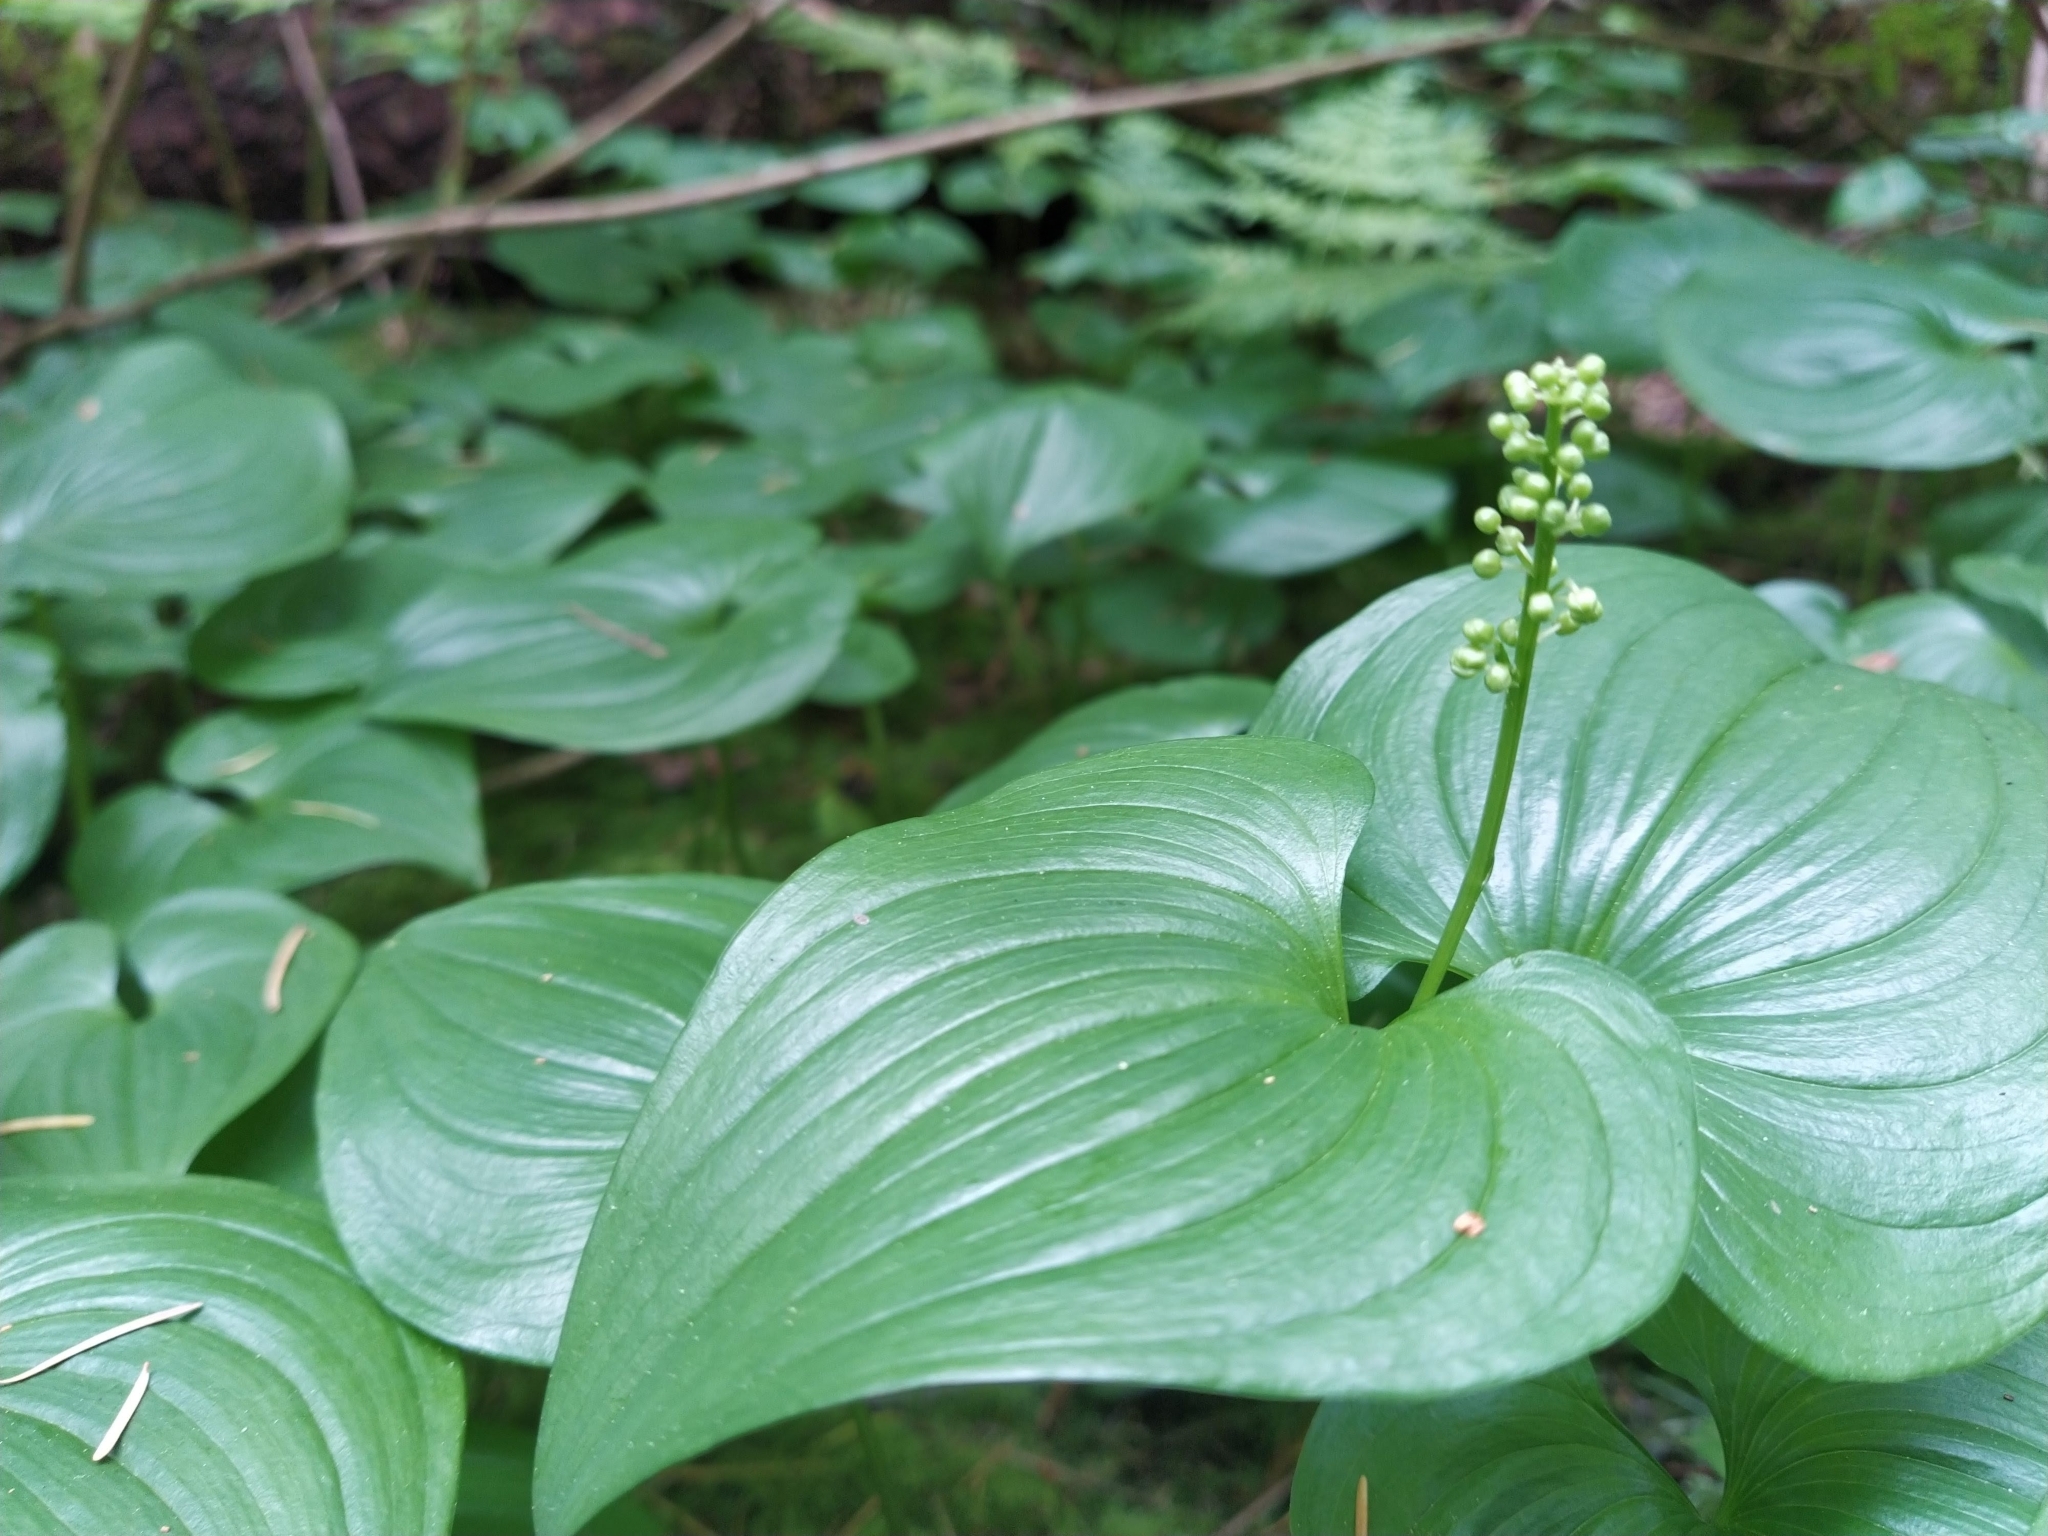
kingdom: Plantae
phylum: Tracheophyta
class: Liliopsida
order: Asparagales
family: Asparagaceae
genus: Maianthemum
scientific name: Maianthemum dilatatum
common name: False lily-of-the-valley
